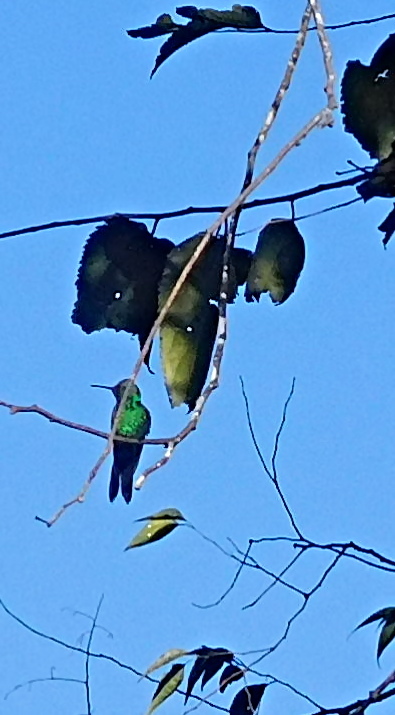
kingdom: Animalia
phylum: Chordata
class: Aves
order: Apodiformes
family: Trochilidae
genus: Riccordia
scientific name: Riccordia ricordii
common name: Cuban emerald
